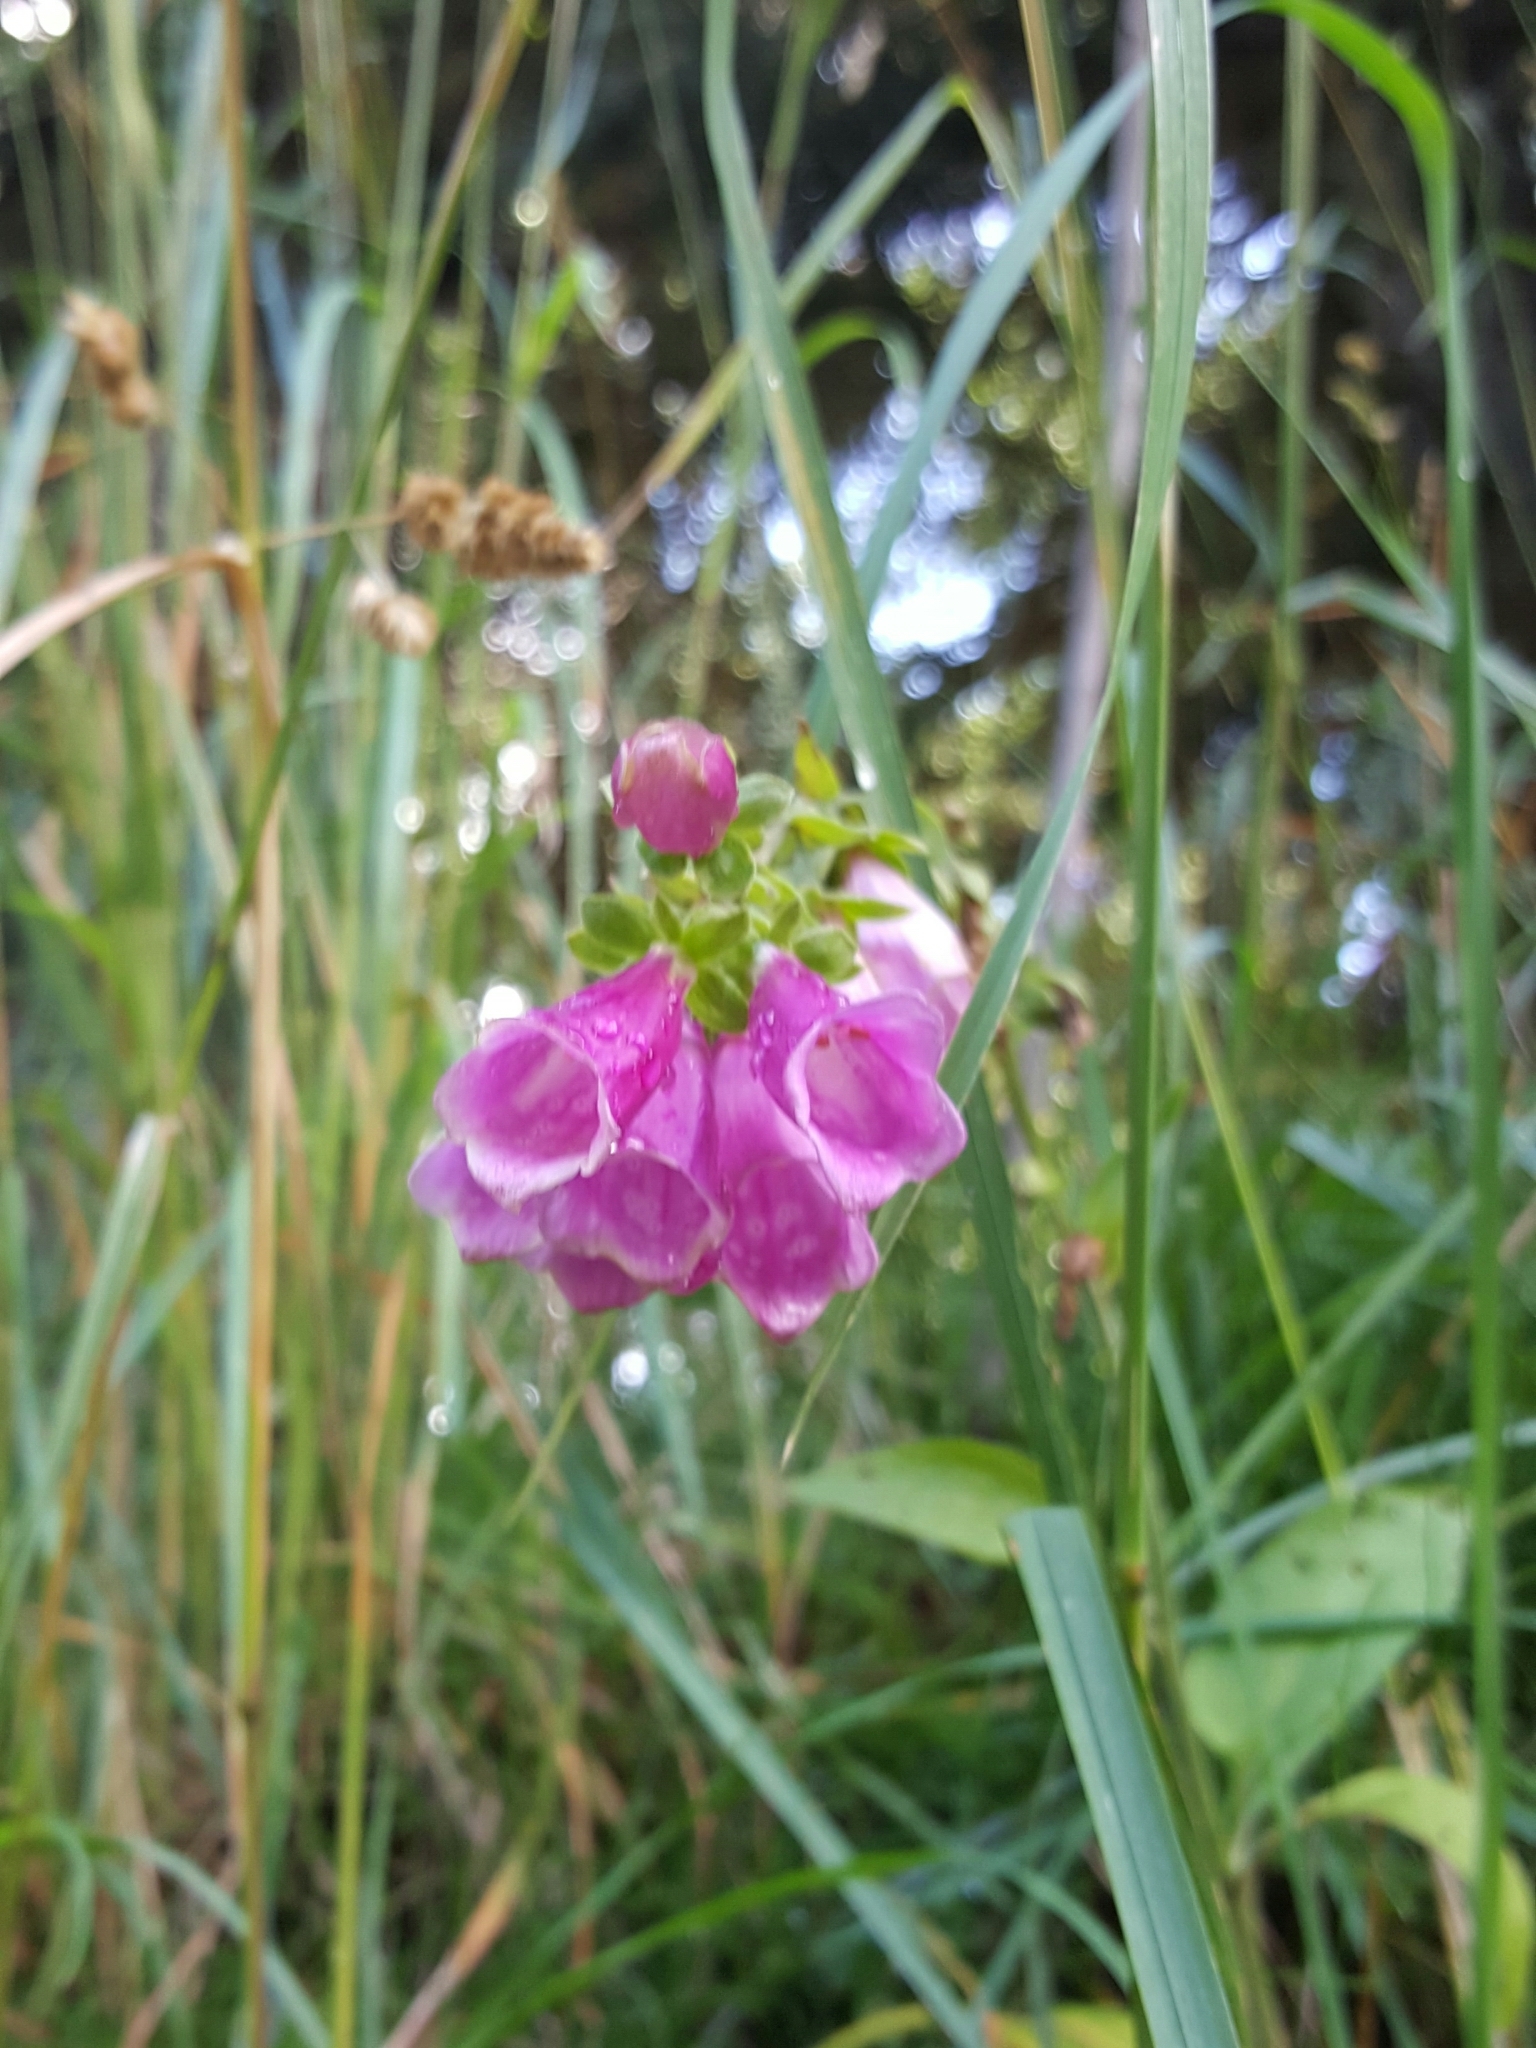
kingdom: Plantae
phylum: Tracheophyta
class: Magnoliopsida
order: Lamiales
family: Plantaginaceae
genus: Digitalis
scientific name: Digitalis purpurea
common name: Foxglove
